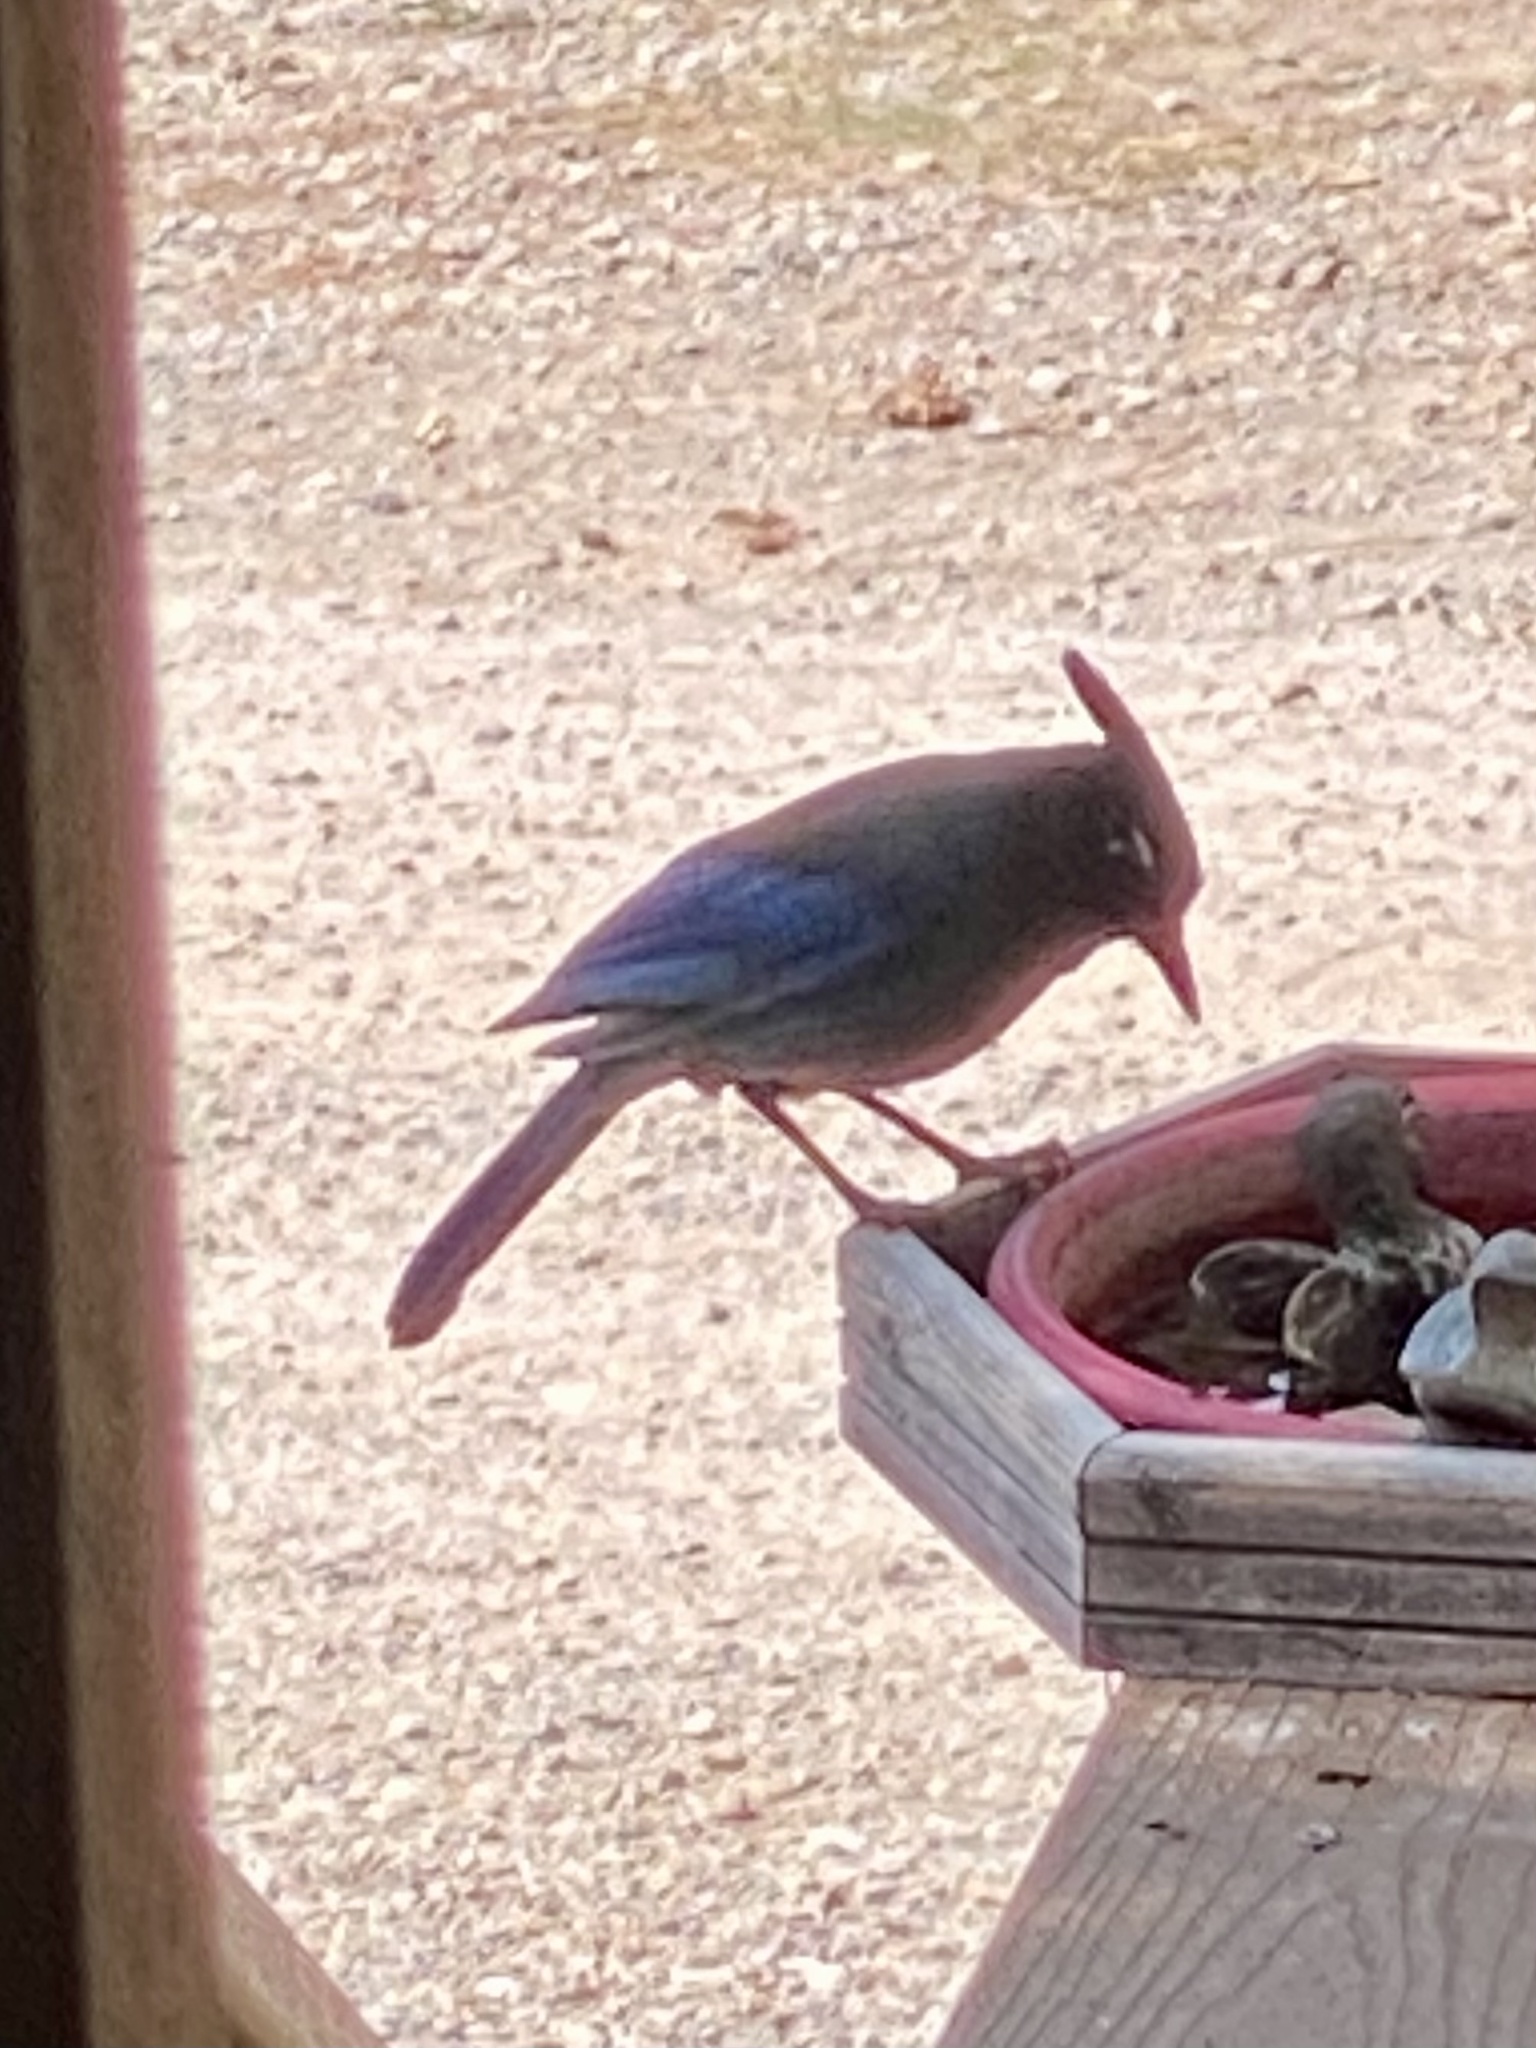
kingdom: Animalia
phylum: Chordata
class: Aves
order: Passeriformes
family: Corvidae
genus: Cyanocitta
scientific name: Cyanocitta stelleri
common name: Steller's jay
